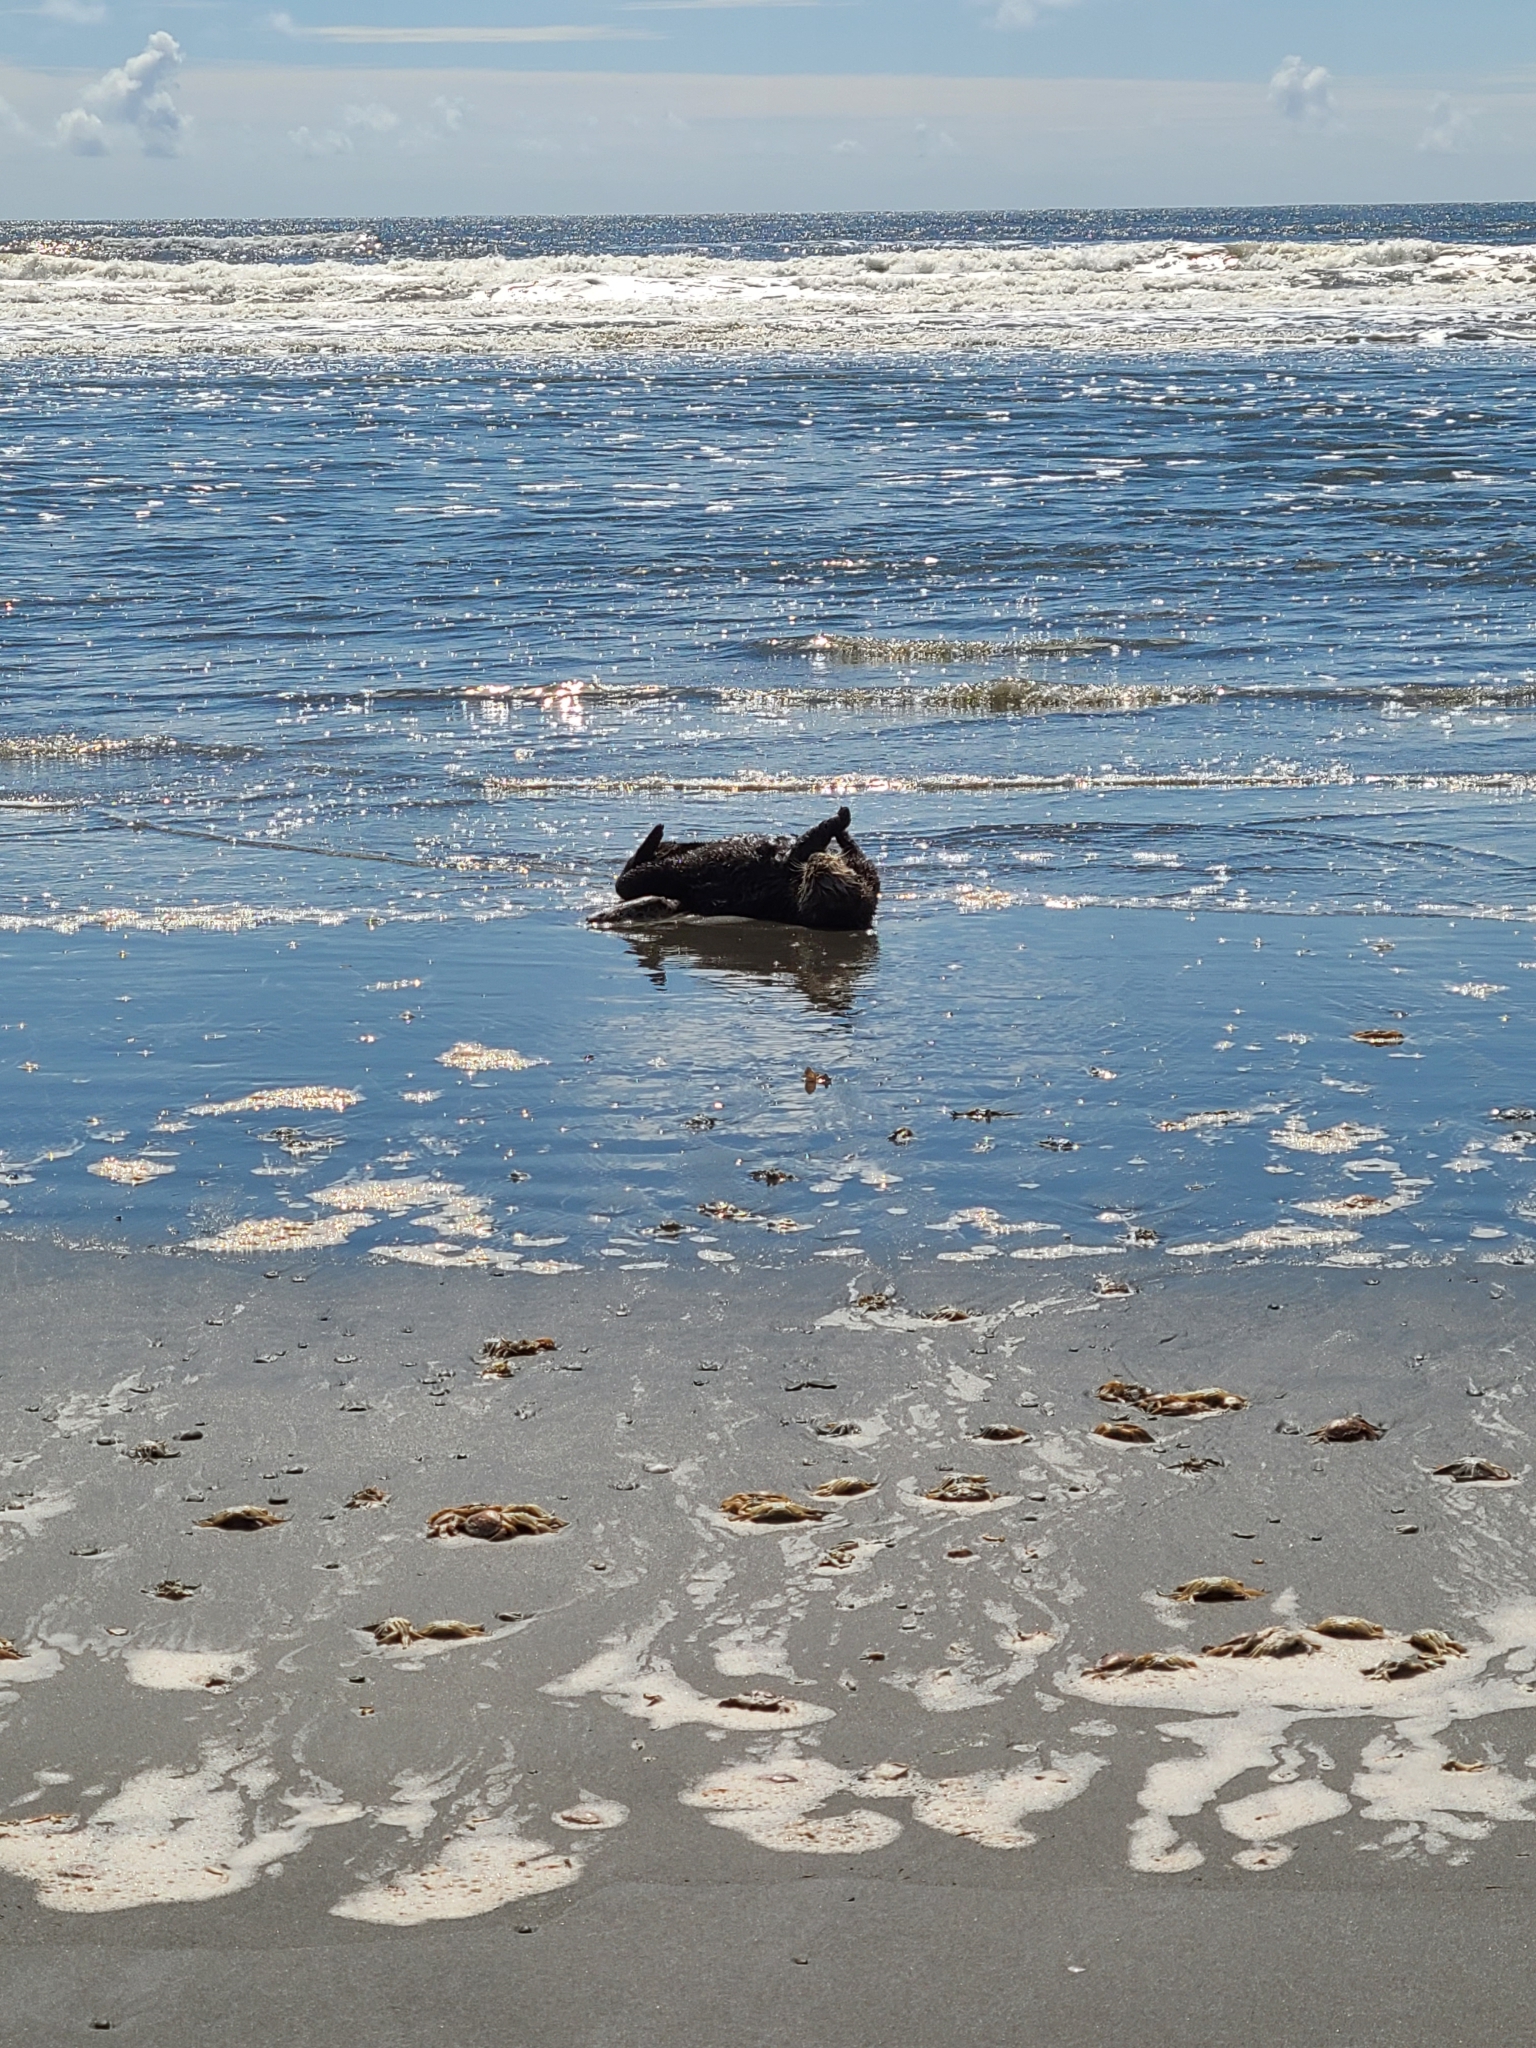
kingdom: Animalia
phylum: Chordata
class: Mammalia
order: Carnivora
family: Mustelidae
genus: Enhydra
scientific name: Enhydra lutris
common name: Sea otter
